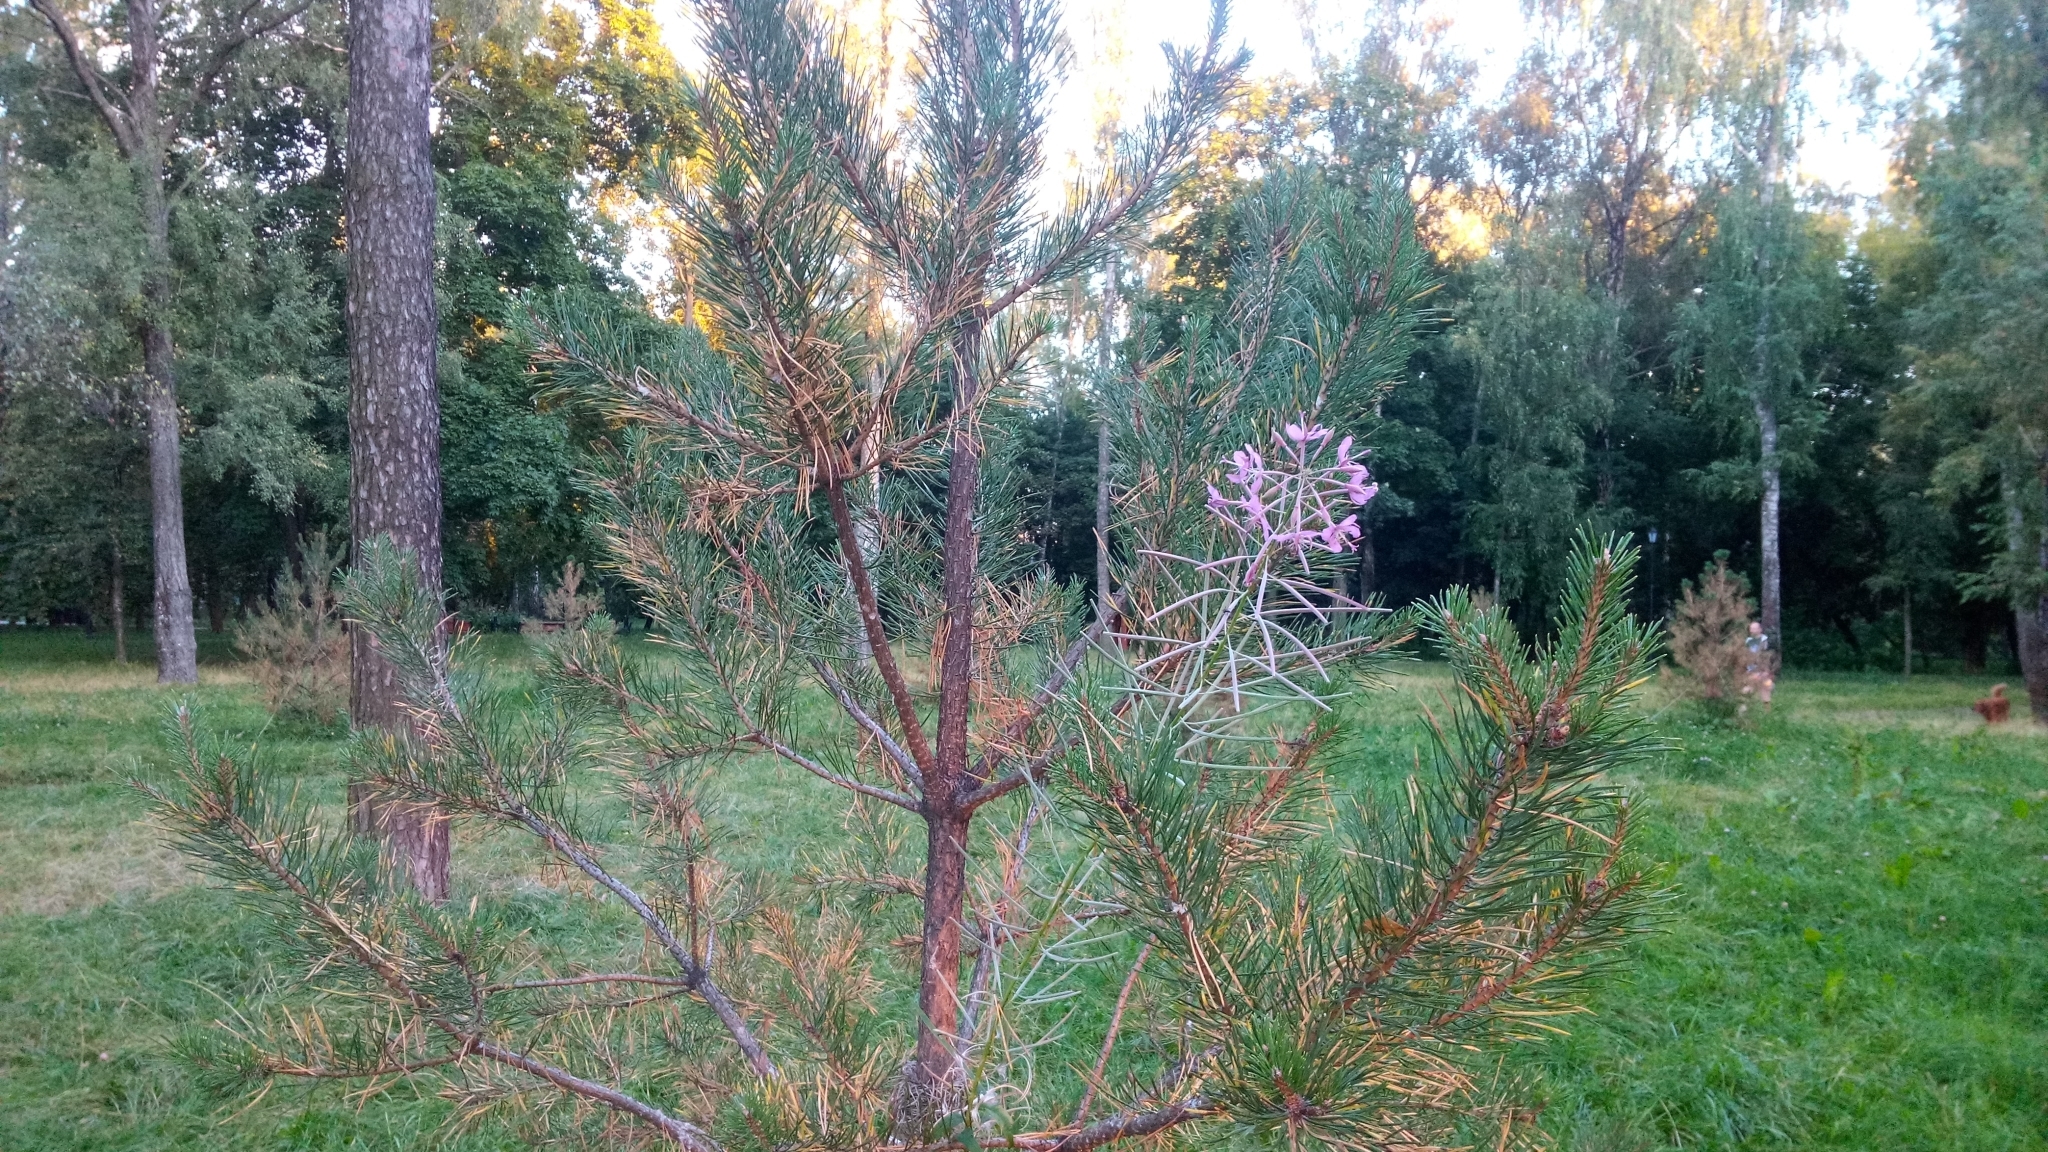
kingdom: Plantae
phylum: Tracheophyta
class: Magnoliopsida
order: Myrtales
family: Onagraceae
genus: Chamaenerion
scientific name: Chamaenerion angustifolium
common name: Fireweed
